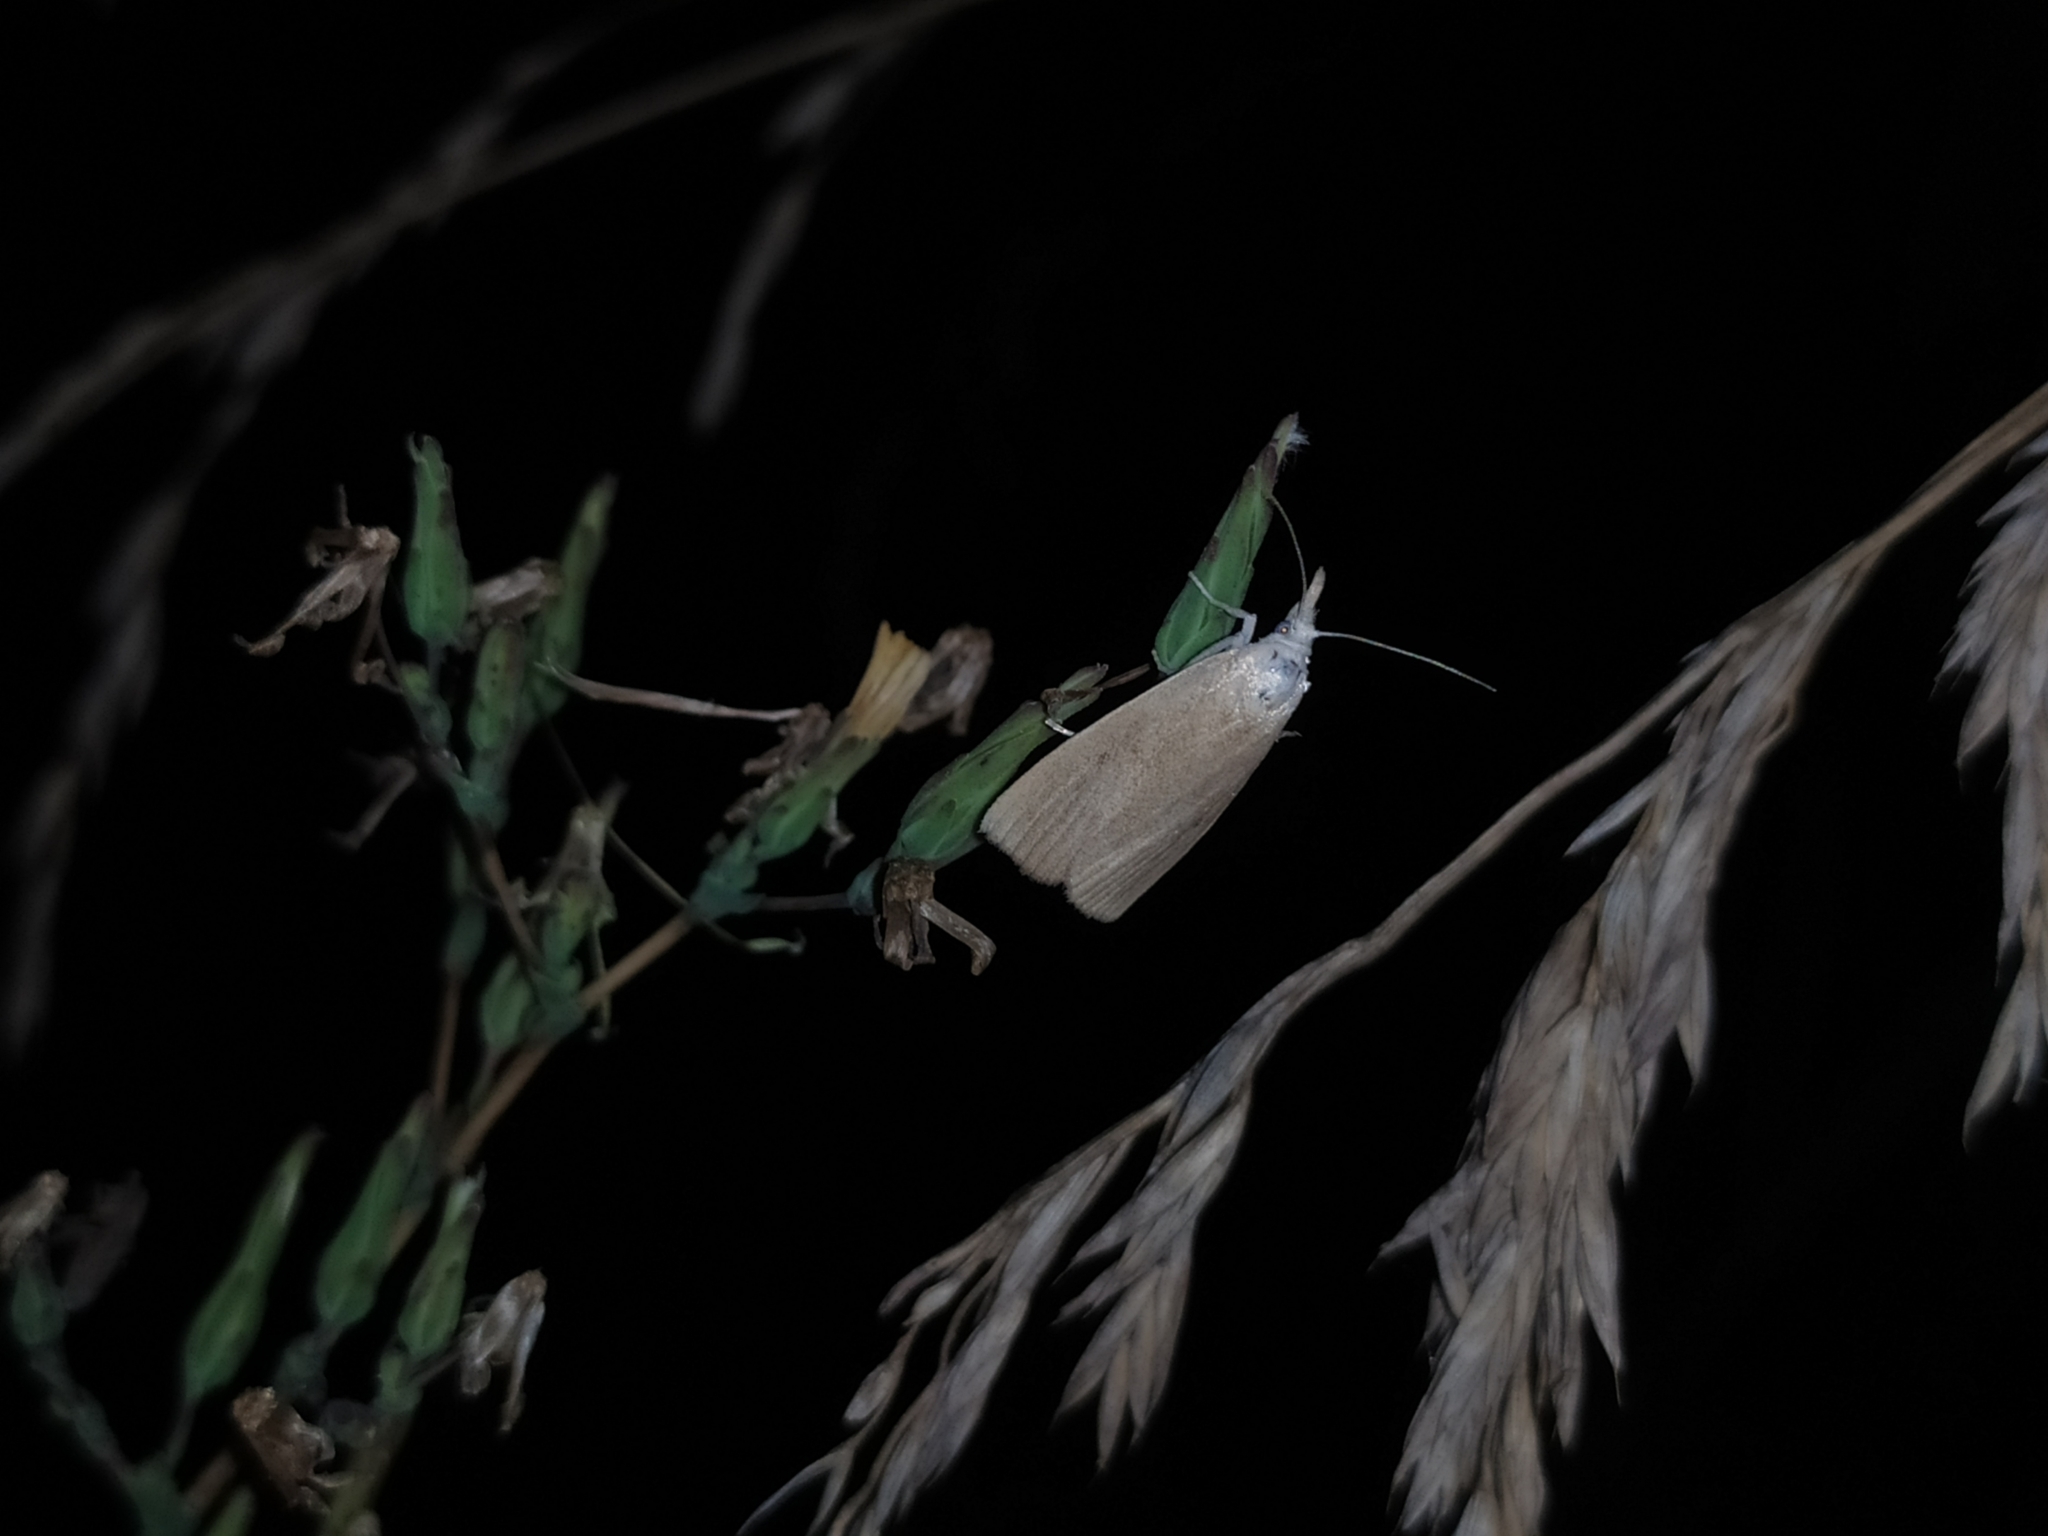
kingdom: Animalia
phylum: Arthropoda
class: Insecta
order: Lepidoptera
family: Crambidae
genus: Calamotropha
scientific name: Calamotropha paludella
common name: Bulrush veneer
